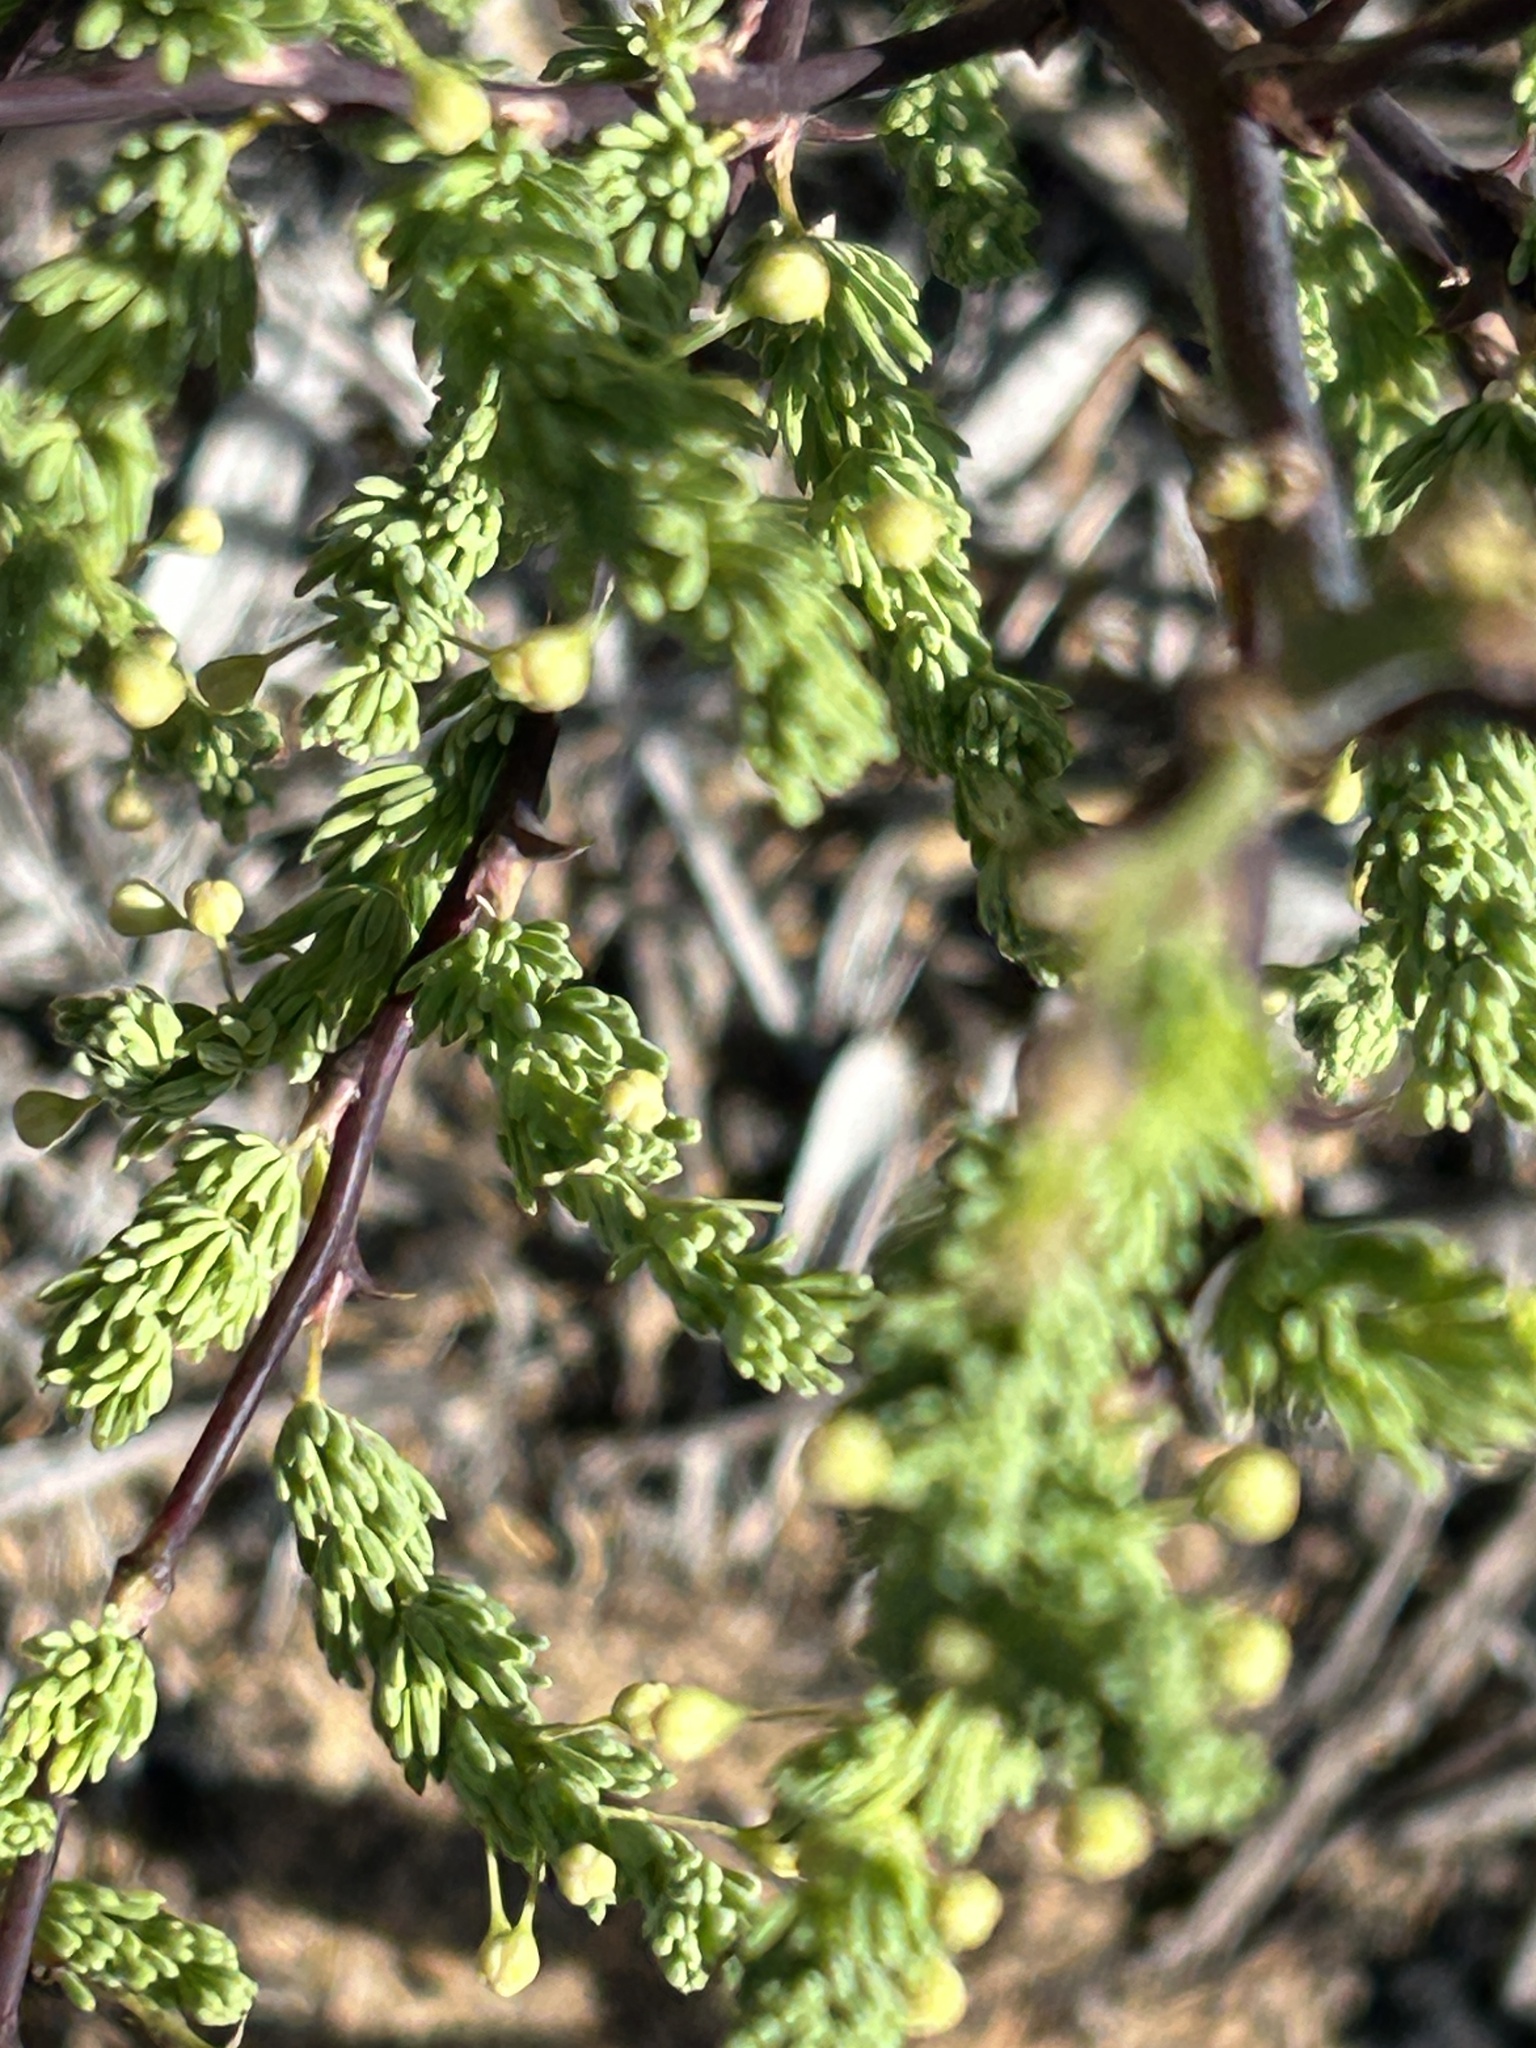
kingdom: Plantae
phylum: Tracheophyta
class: Liliopsida
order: Asparagales
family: Asparagaceae
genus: Asparagus
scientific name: Asparagus rubicundus
